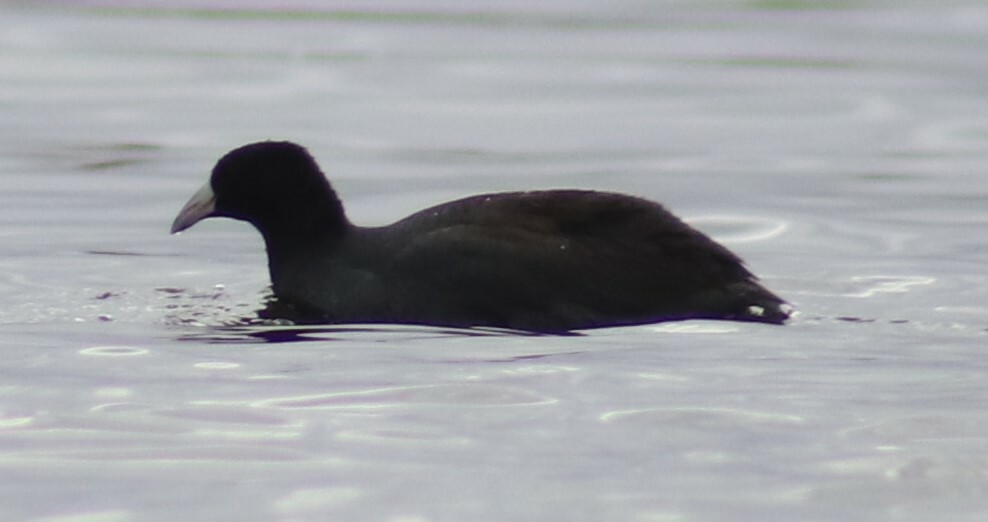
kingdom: Animalia
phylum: Chordata
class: Aves
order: Gruiformes
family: Rallidae
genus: Fulica
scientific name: Fulica americana
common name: American coot
